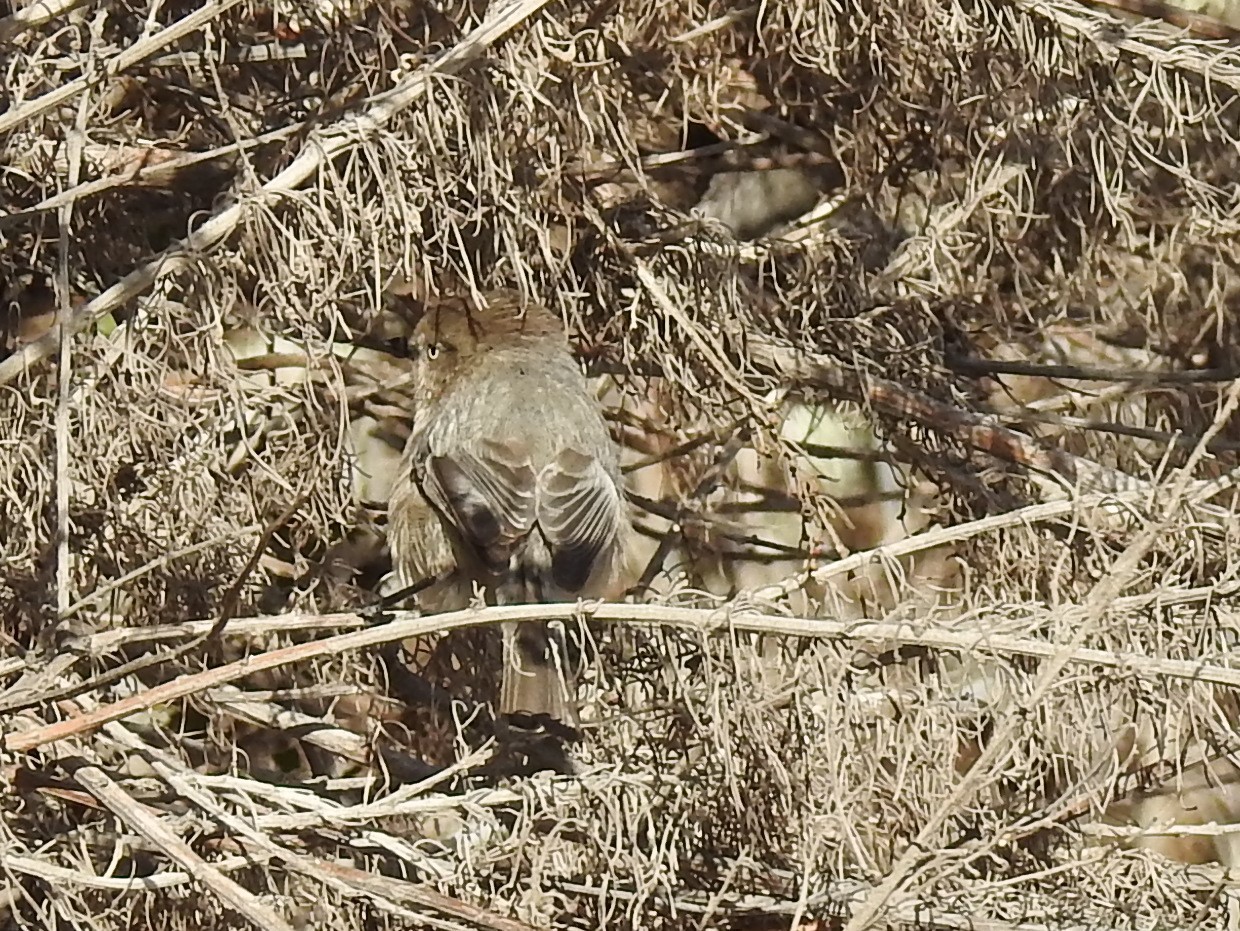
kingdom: Animalia
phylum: Chordata
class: Aves
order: Passeriformes
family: Aegithalidae
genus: Psaltriparus
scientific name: Psaltriparus minimus
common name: American bushtit
